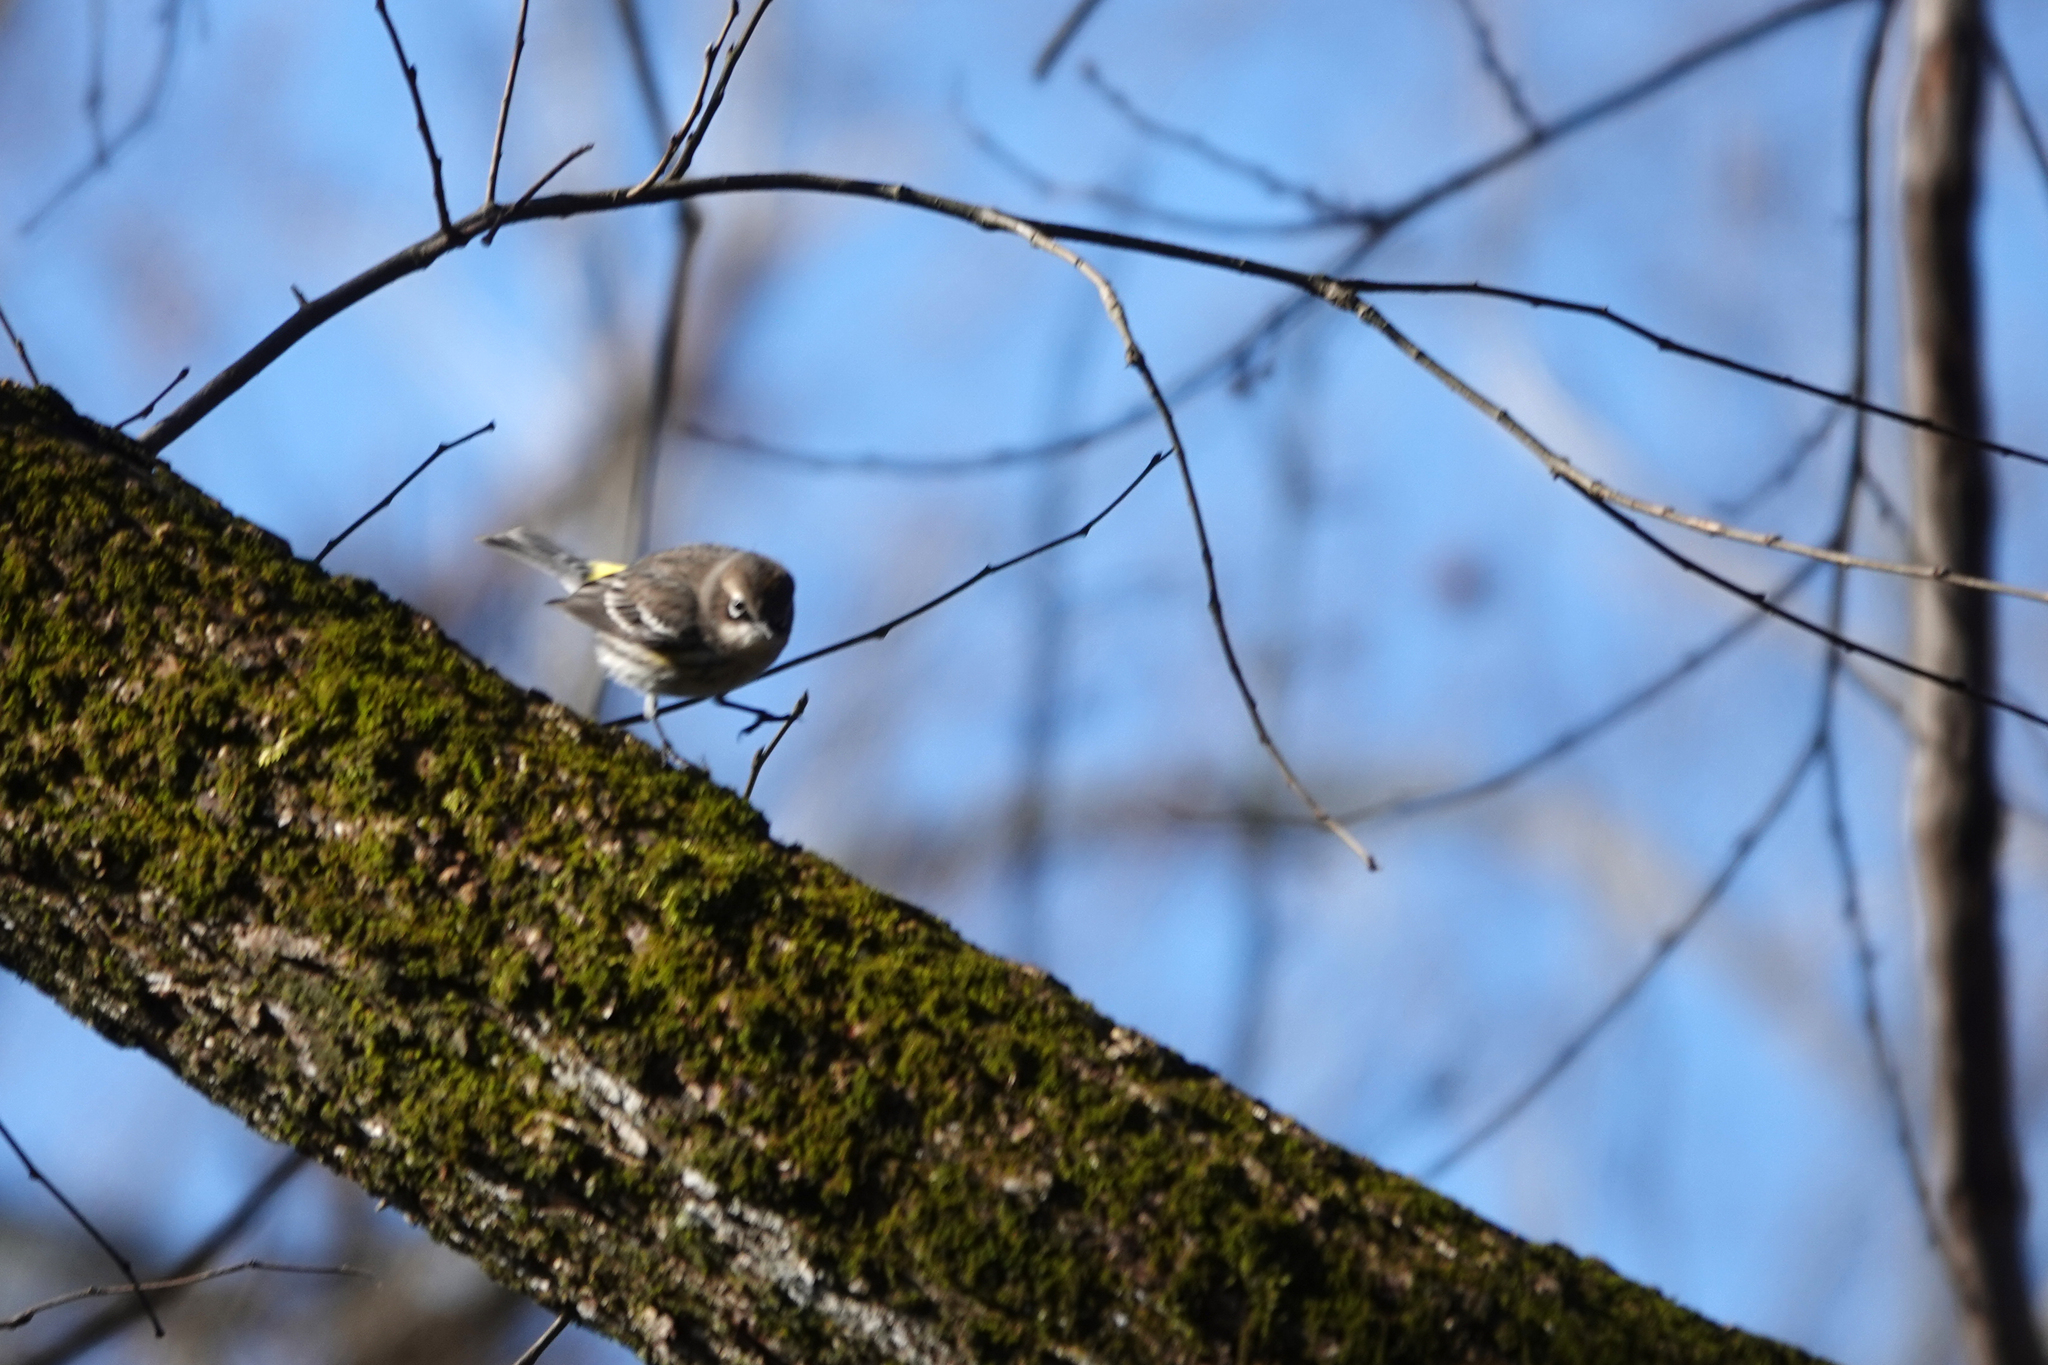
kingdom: Animalia
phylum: Chordata
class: Aves
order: Passeriformes
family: Parulidae
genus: Setophaga
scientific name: Setophaga coronata
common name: Myrtle warbler
